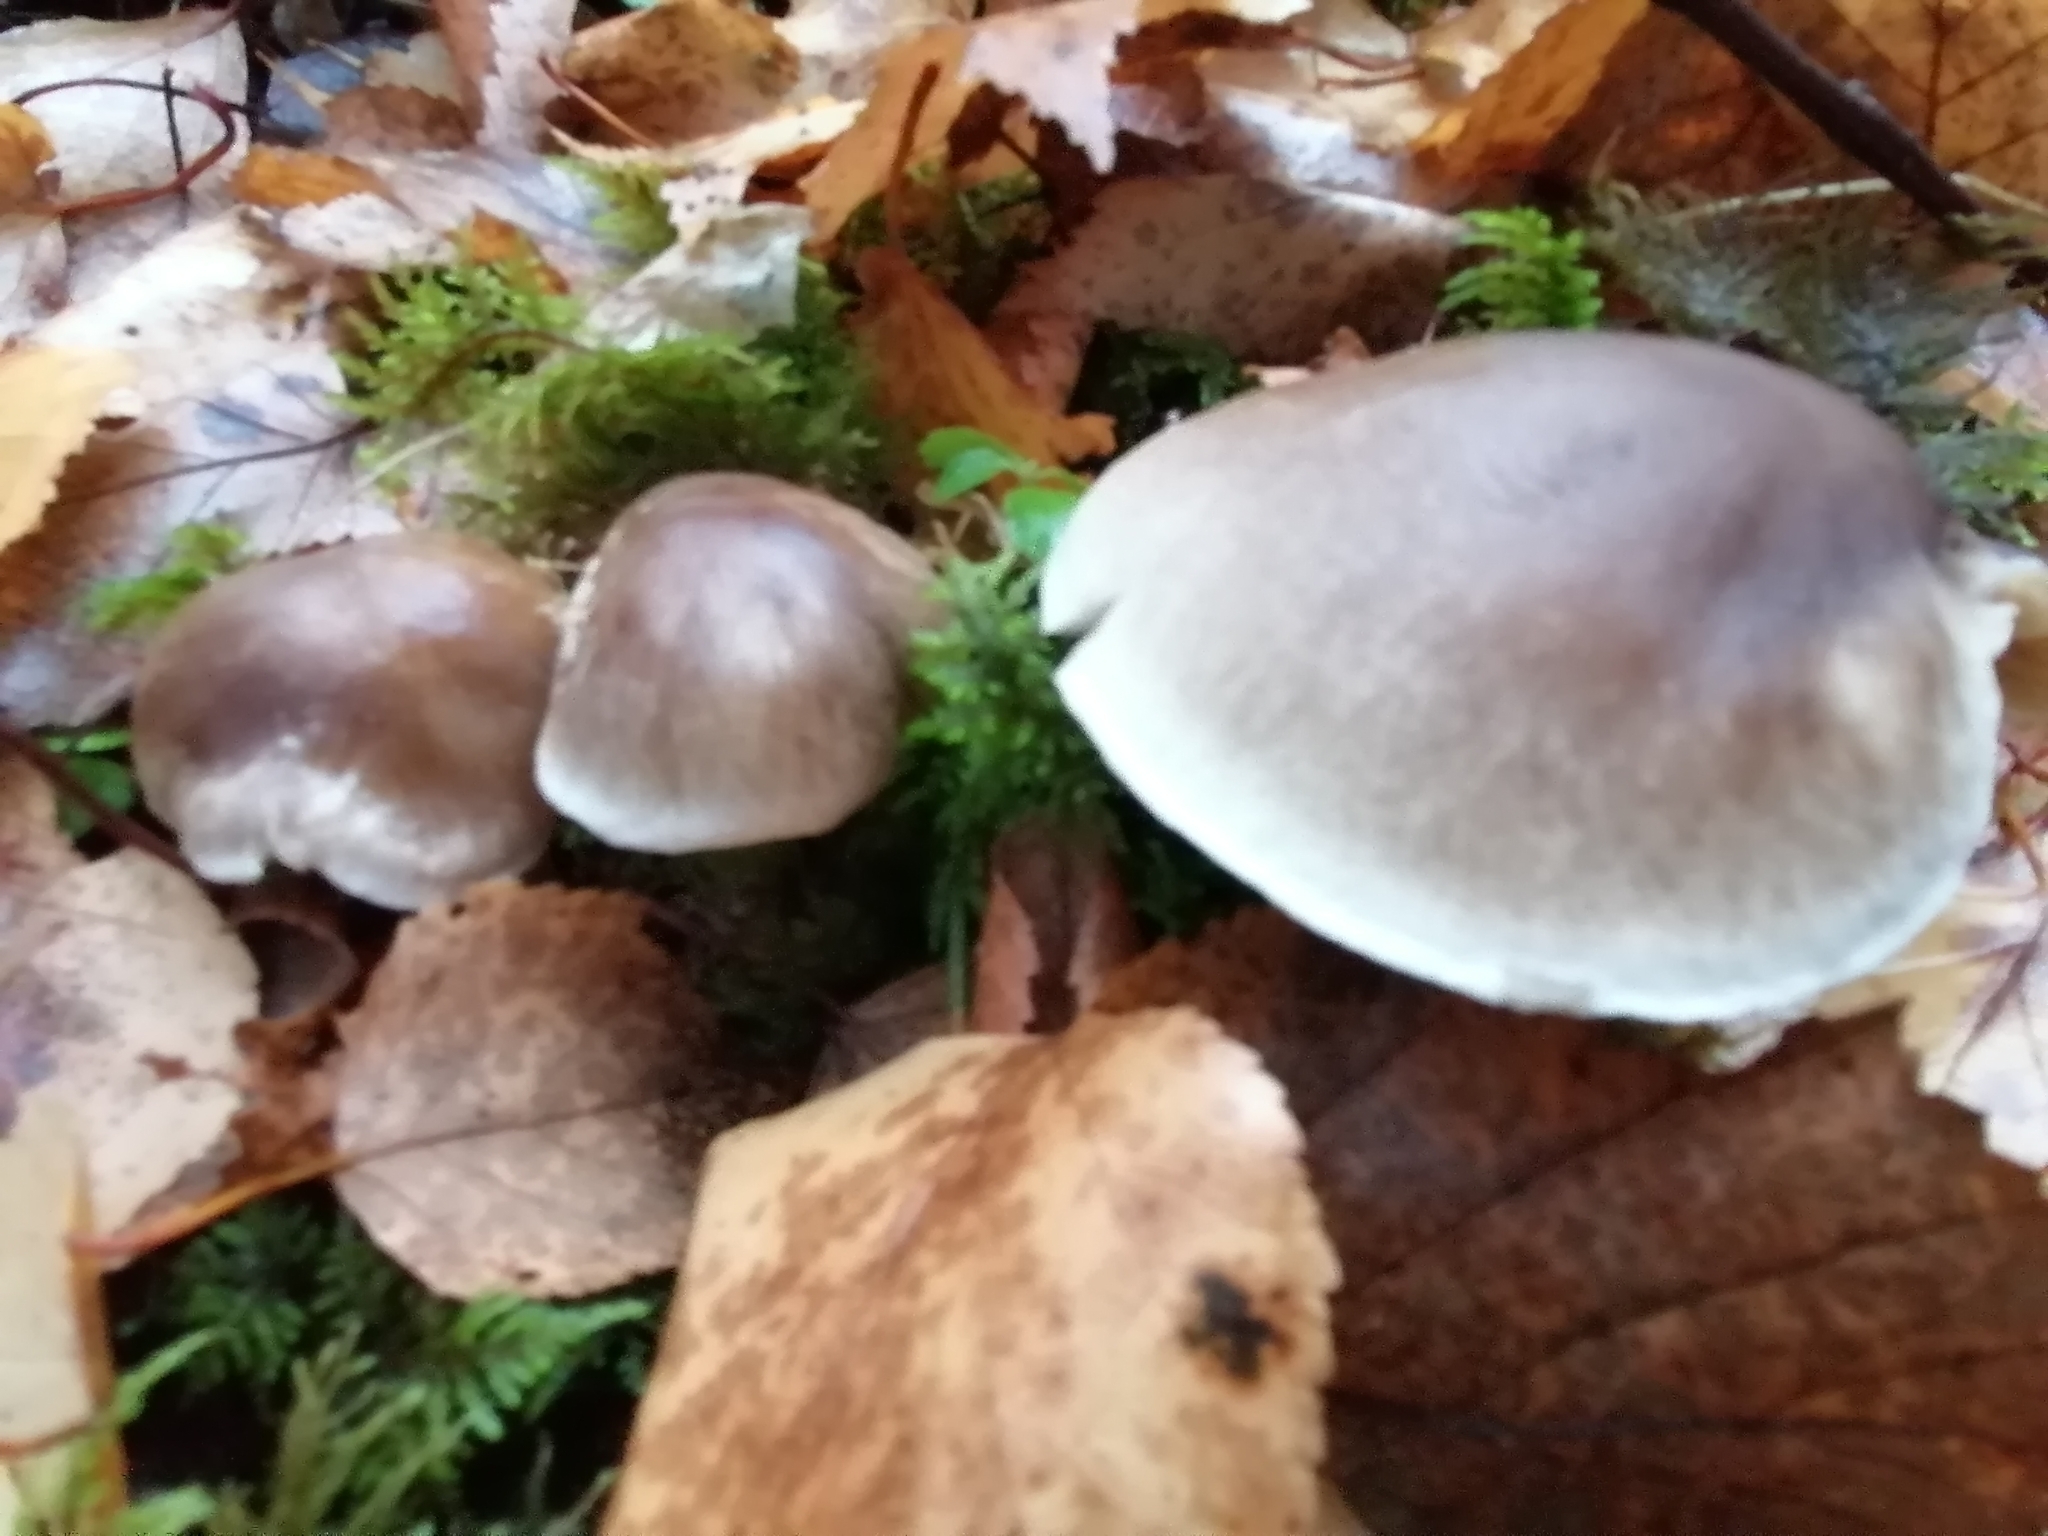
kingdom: Fungi
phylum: Basidiomycota
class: Agaricomycetes
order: Agaricales
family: Tricholomataceae
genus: Tricholoma
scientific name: Tricholoma saponaceum
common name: Soapy trich
